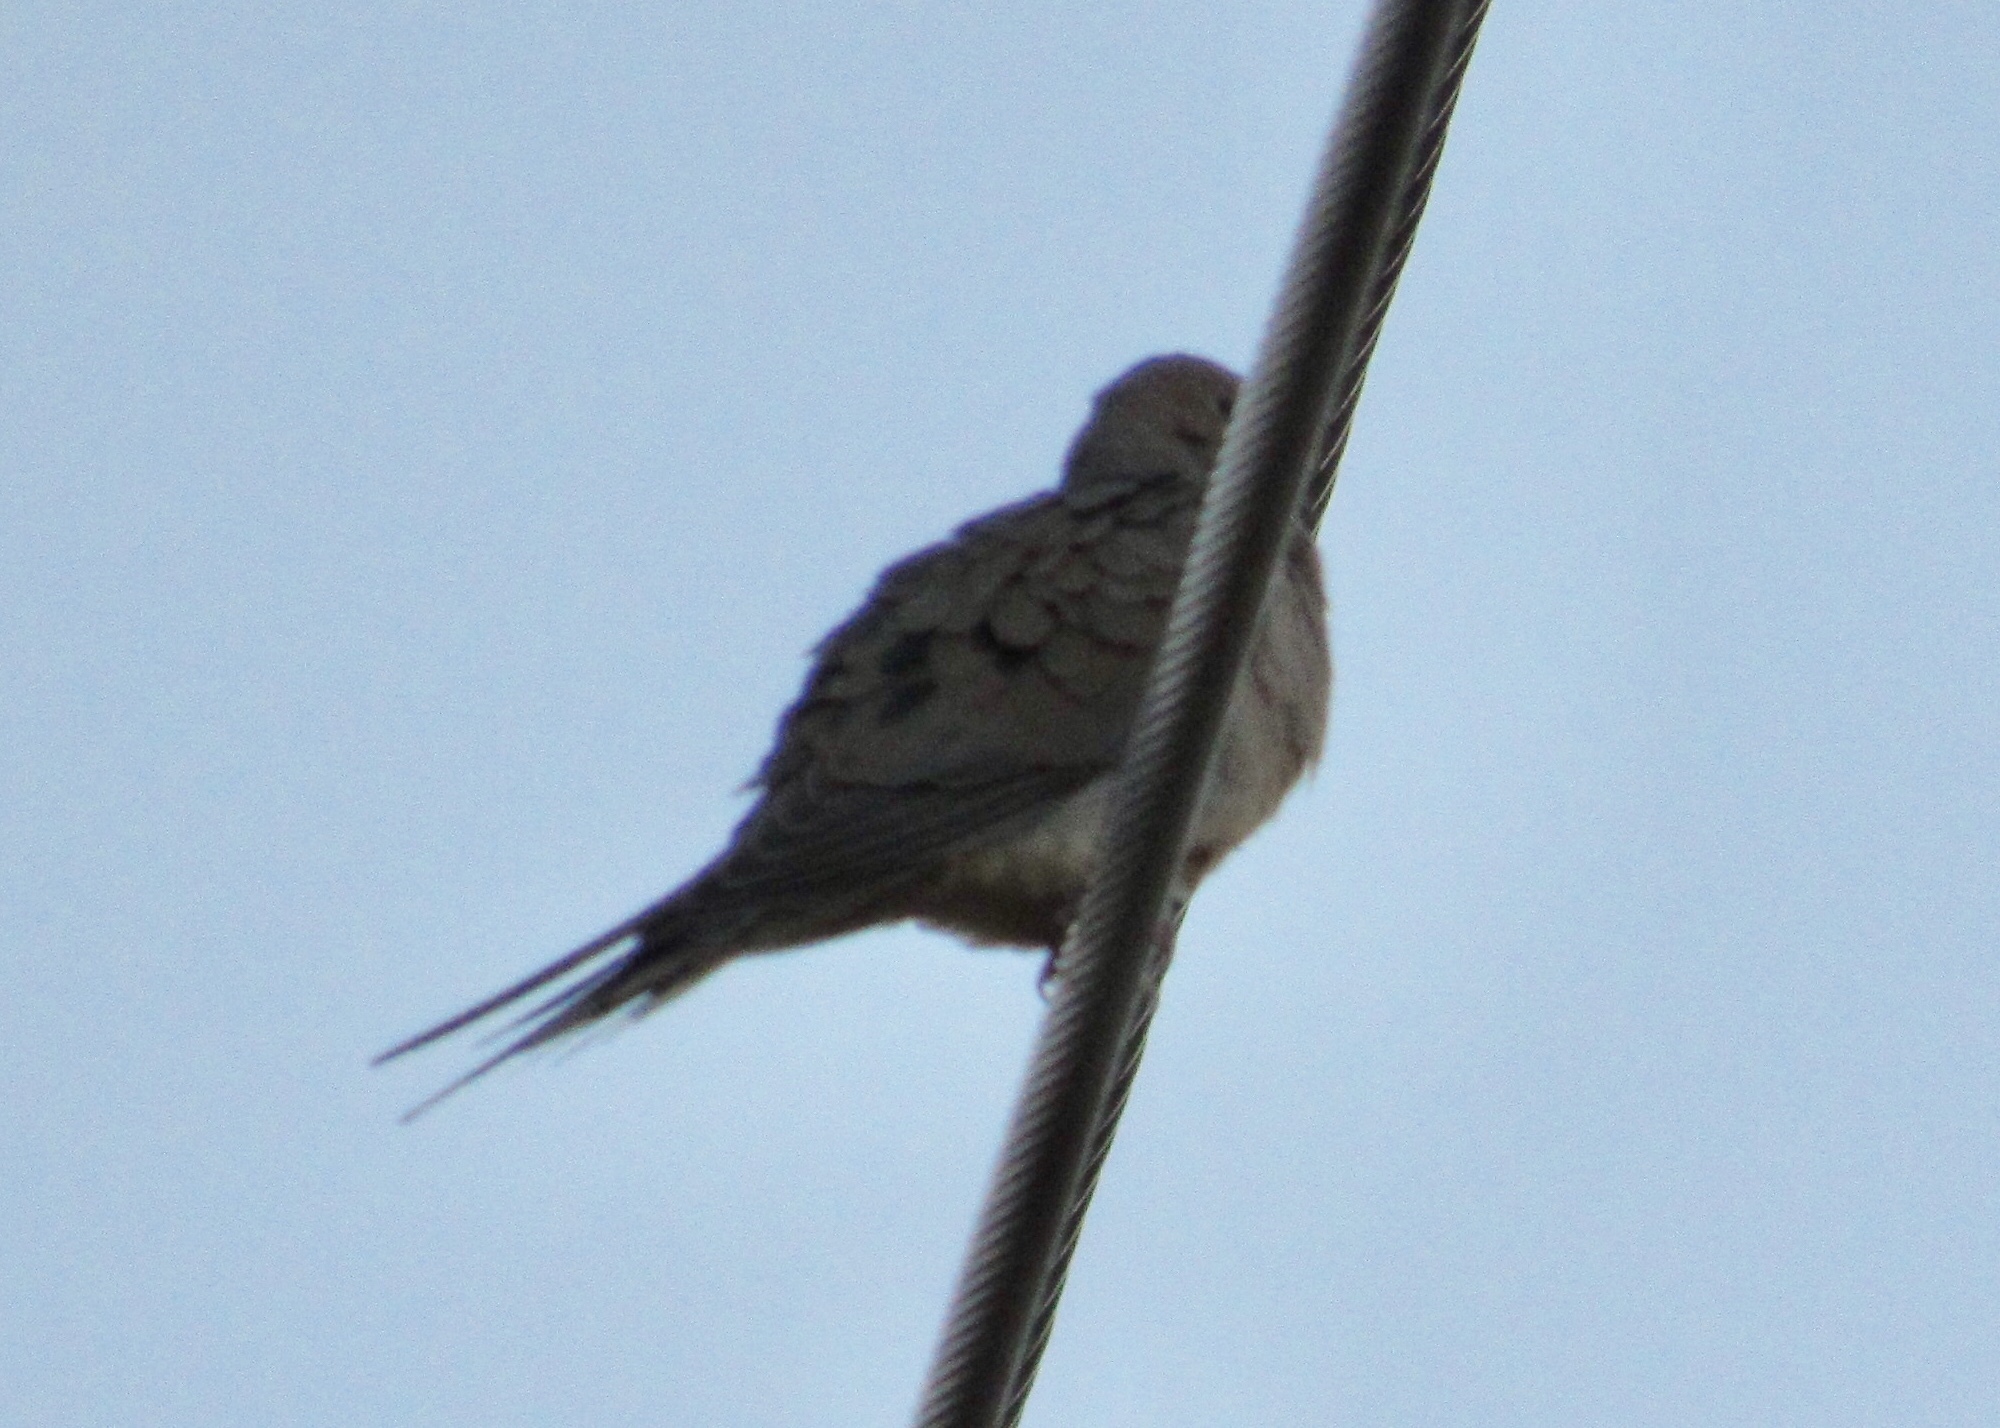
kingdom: Animalia
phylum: Chordata
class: Aves
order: Columbiformes
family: Columbidae
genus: Zenaida
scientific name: Zenaida macroura
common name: Mourning dove
